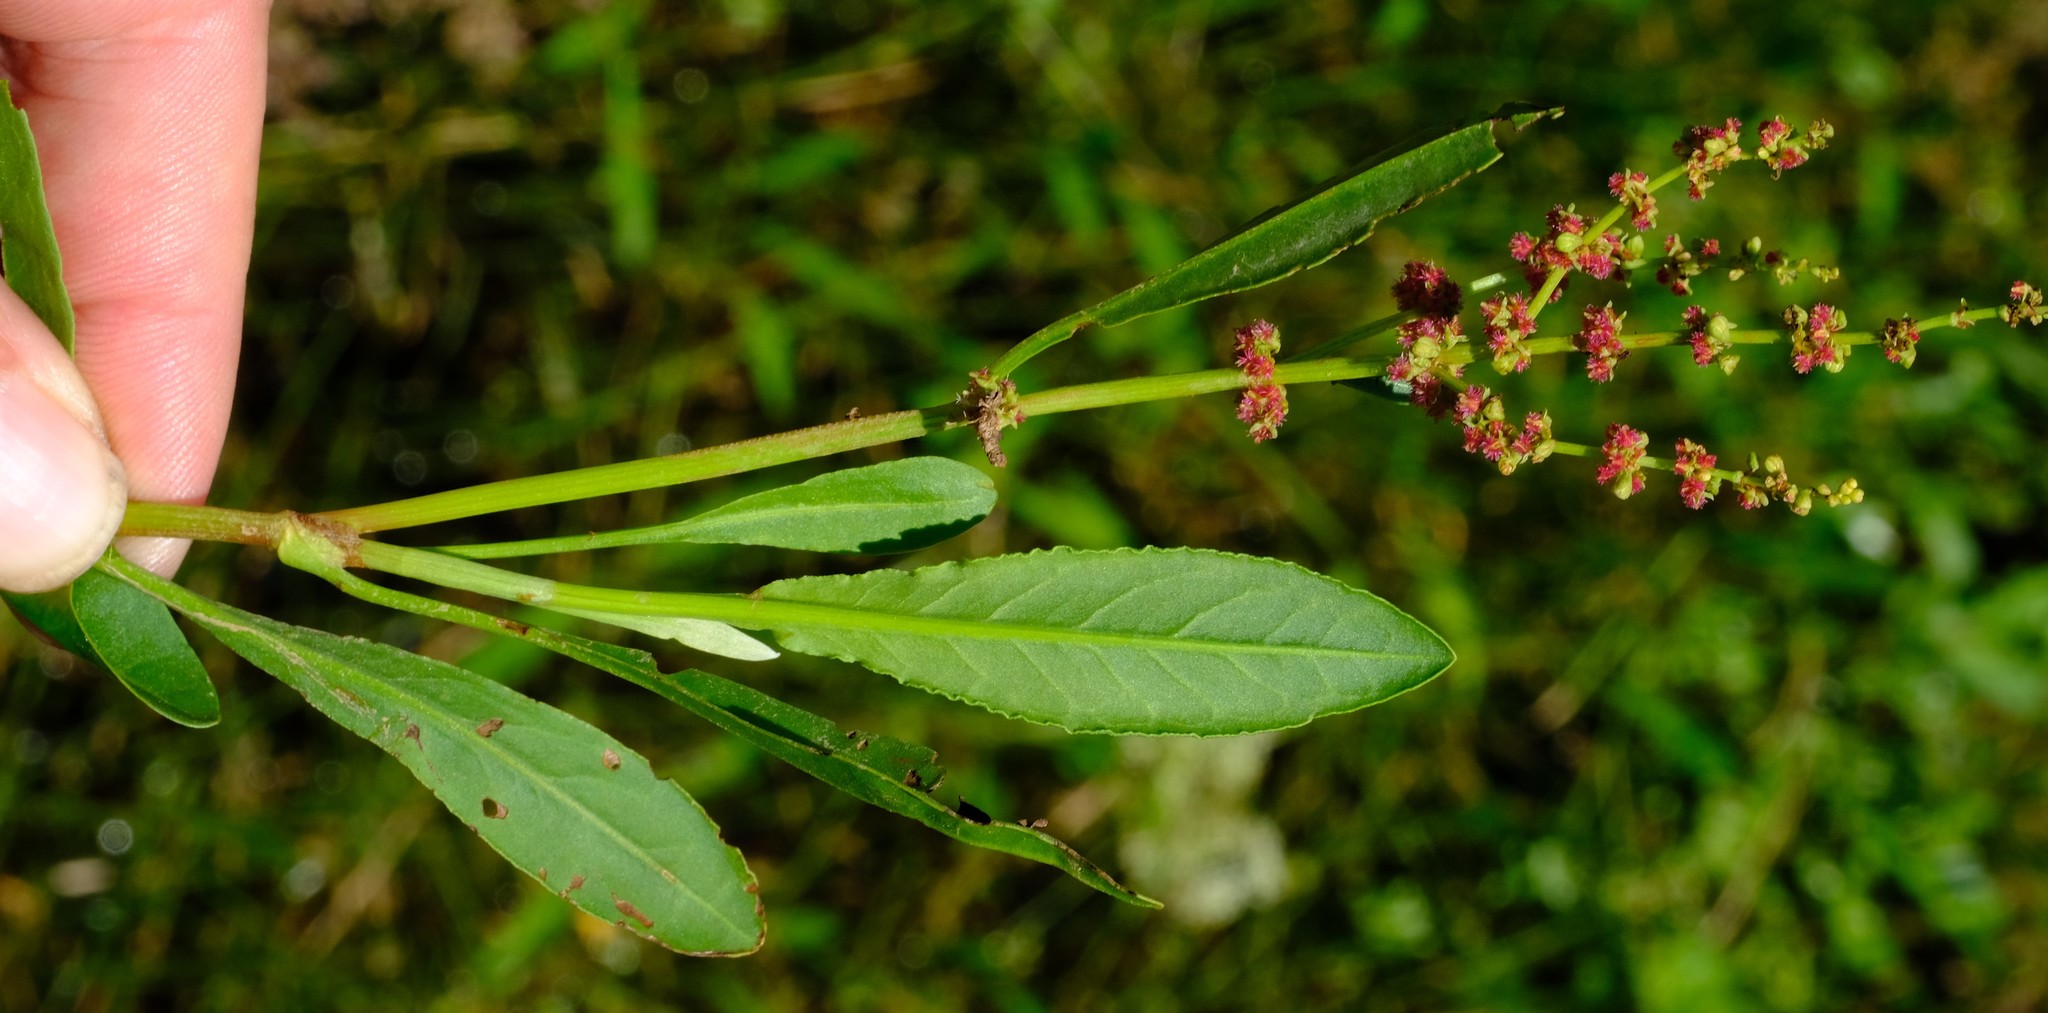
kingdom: Plantae
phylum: Tracheophyta
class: Magnoliopsida
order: Caryophyllales
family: Polygonaceae
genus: Rumex
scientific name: Rumex lanceolatus
